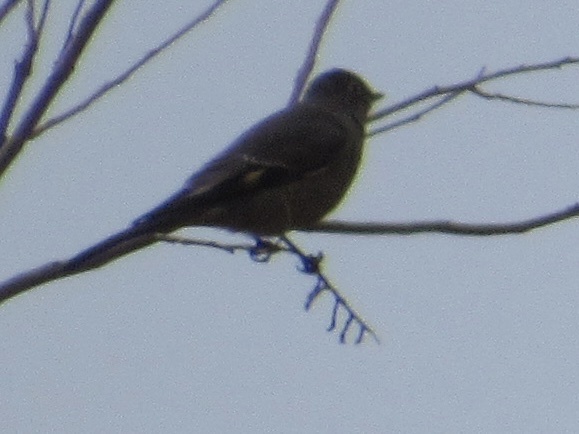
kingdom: Animalia
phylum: Chordata
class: Aves
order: Passeriformes
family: Turdidae
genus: Myadestes
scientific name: Myadestes townsendi
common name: Townsend's solitaire
